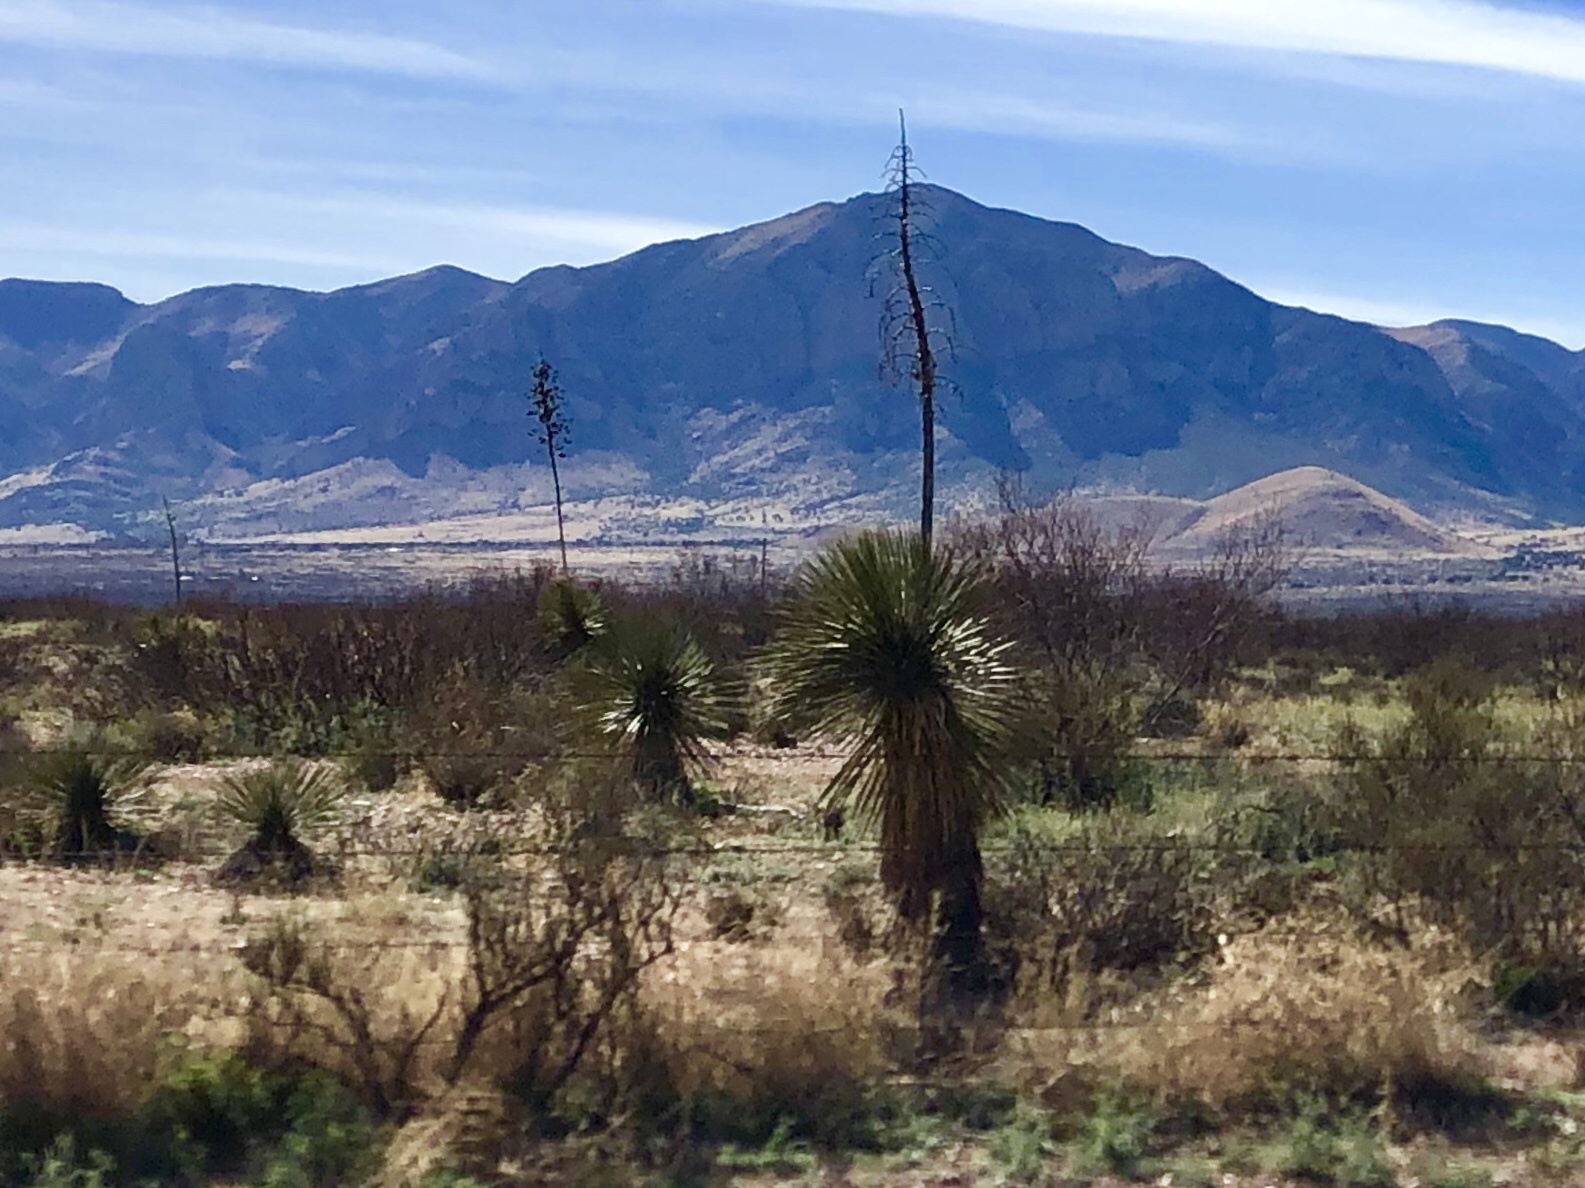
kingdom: Plantae
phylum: Tracheophyta
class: Liliopsida
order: Asparagales
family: Asparagaceae
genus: Yucca
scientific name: Yucca elata
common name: Palmella
